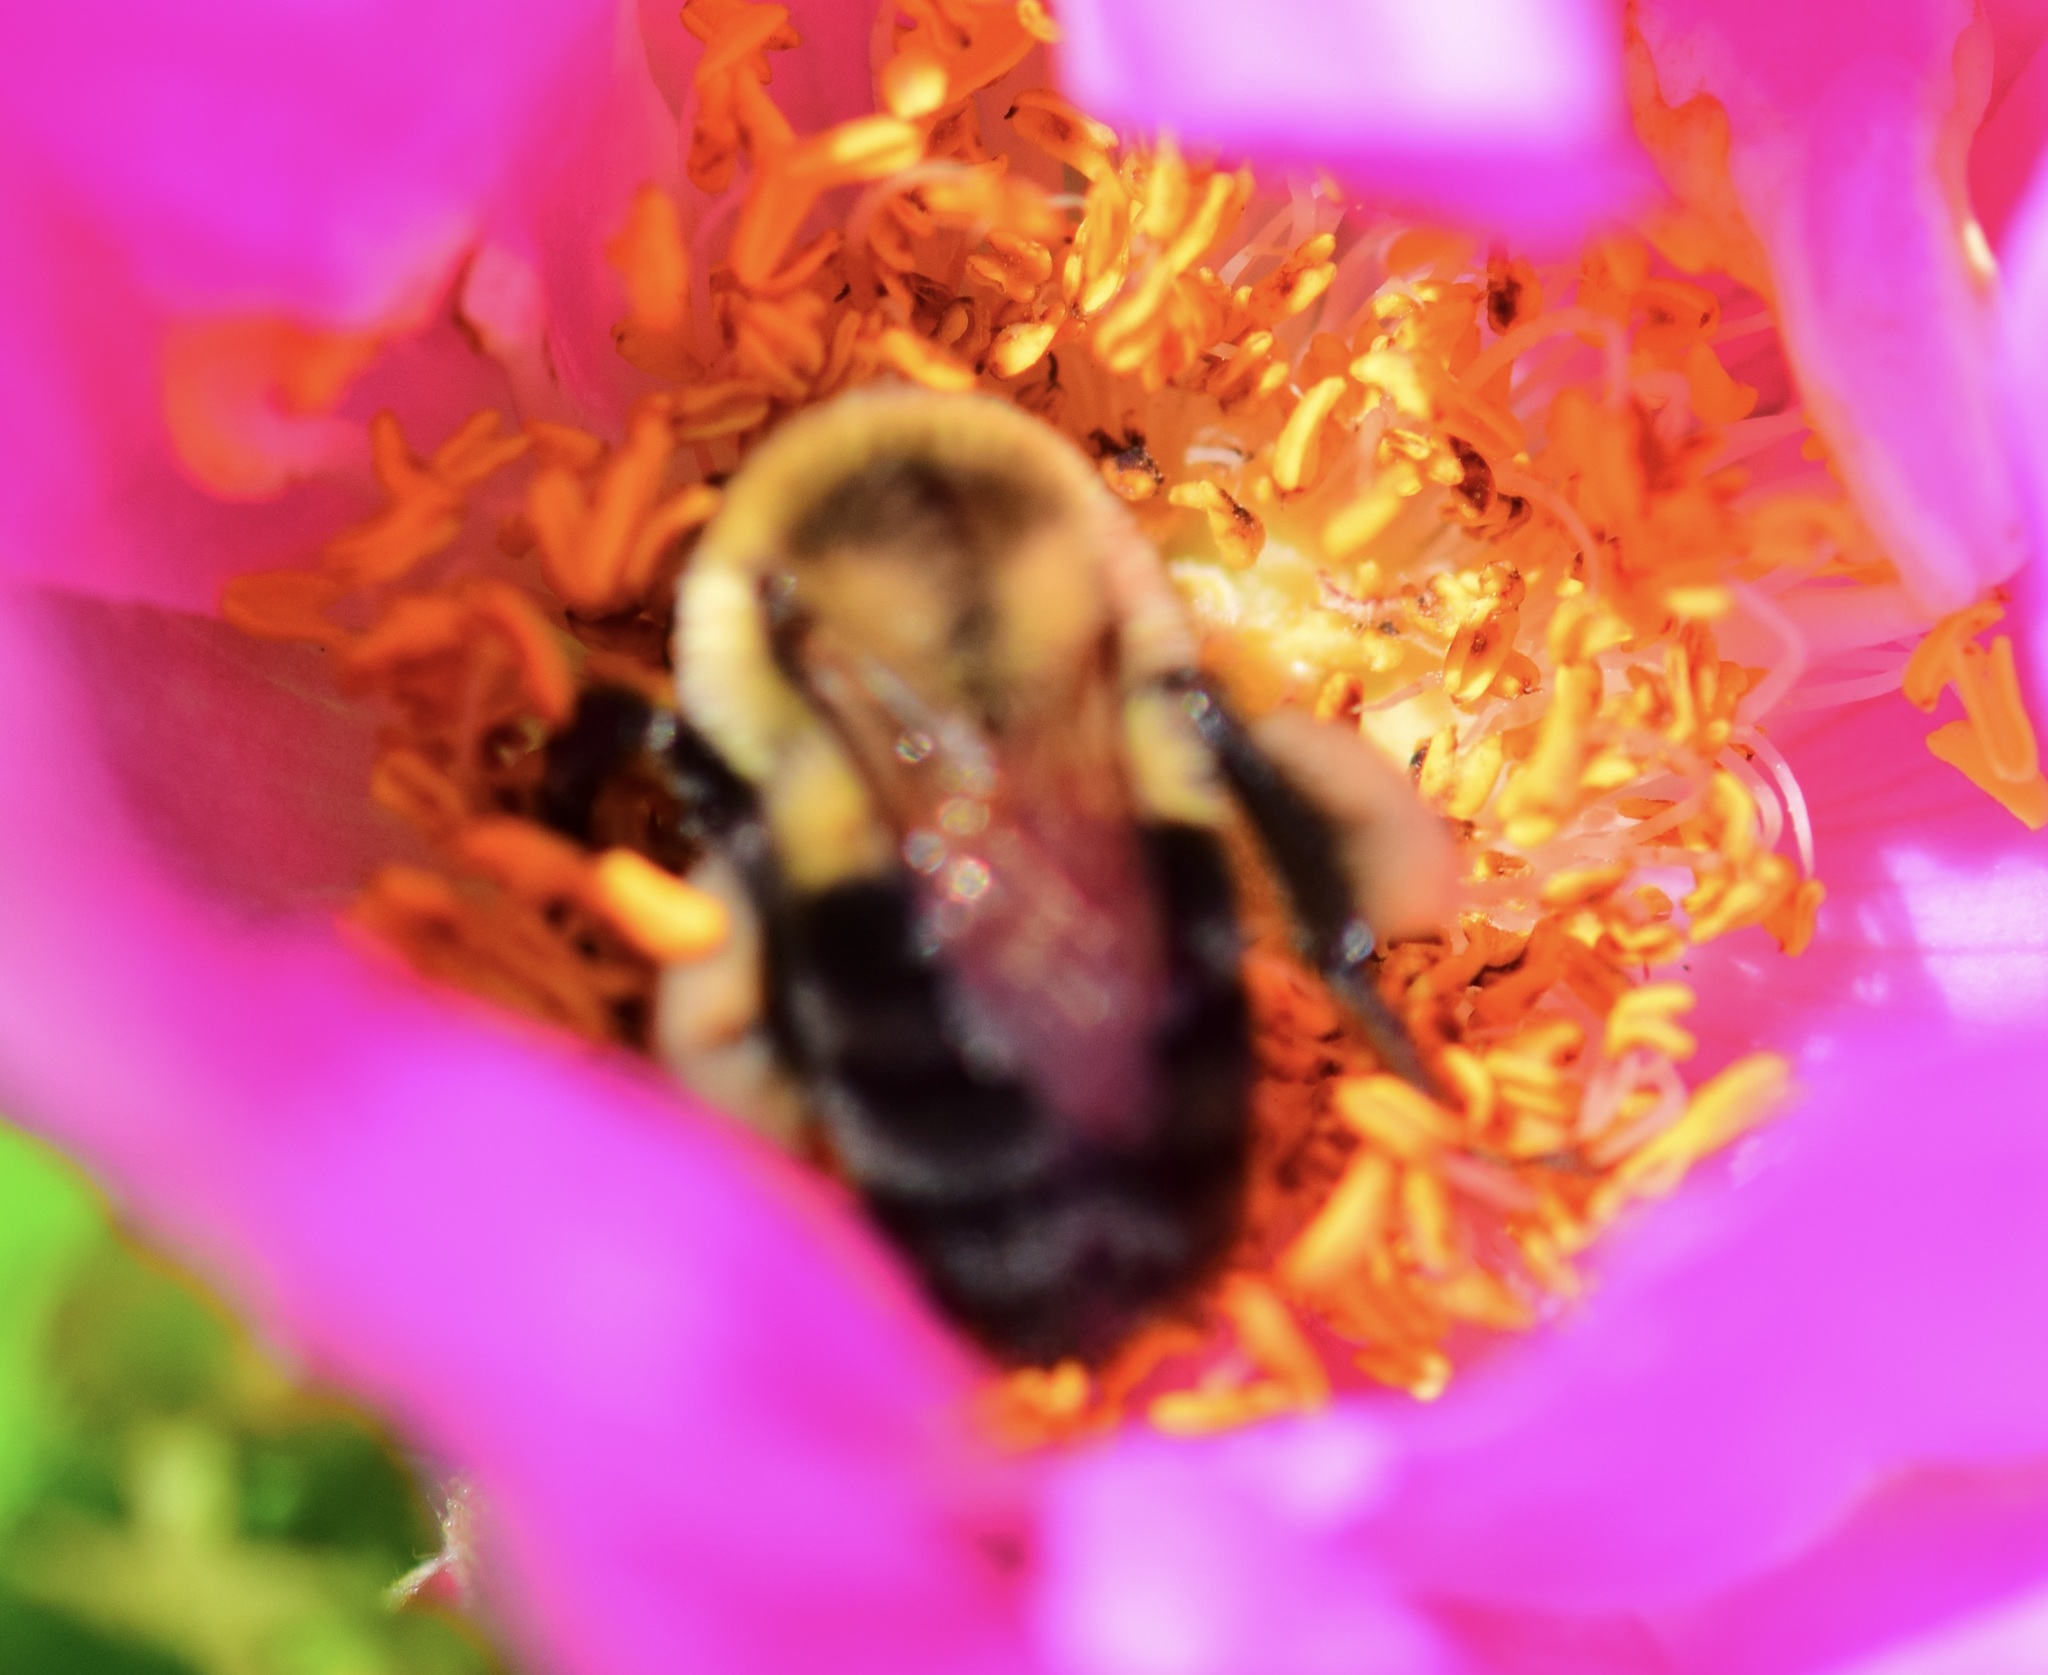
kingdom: Animalia
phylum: Arthropoda
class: Insecta
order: Hymenoptera
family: Apidae
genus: Bombus
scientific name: Bombus impatiens
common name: Common eastern bumble bee
